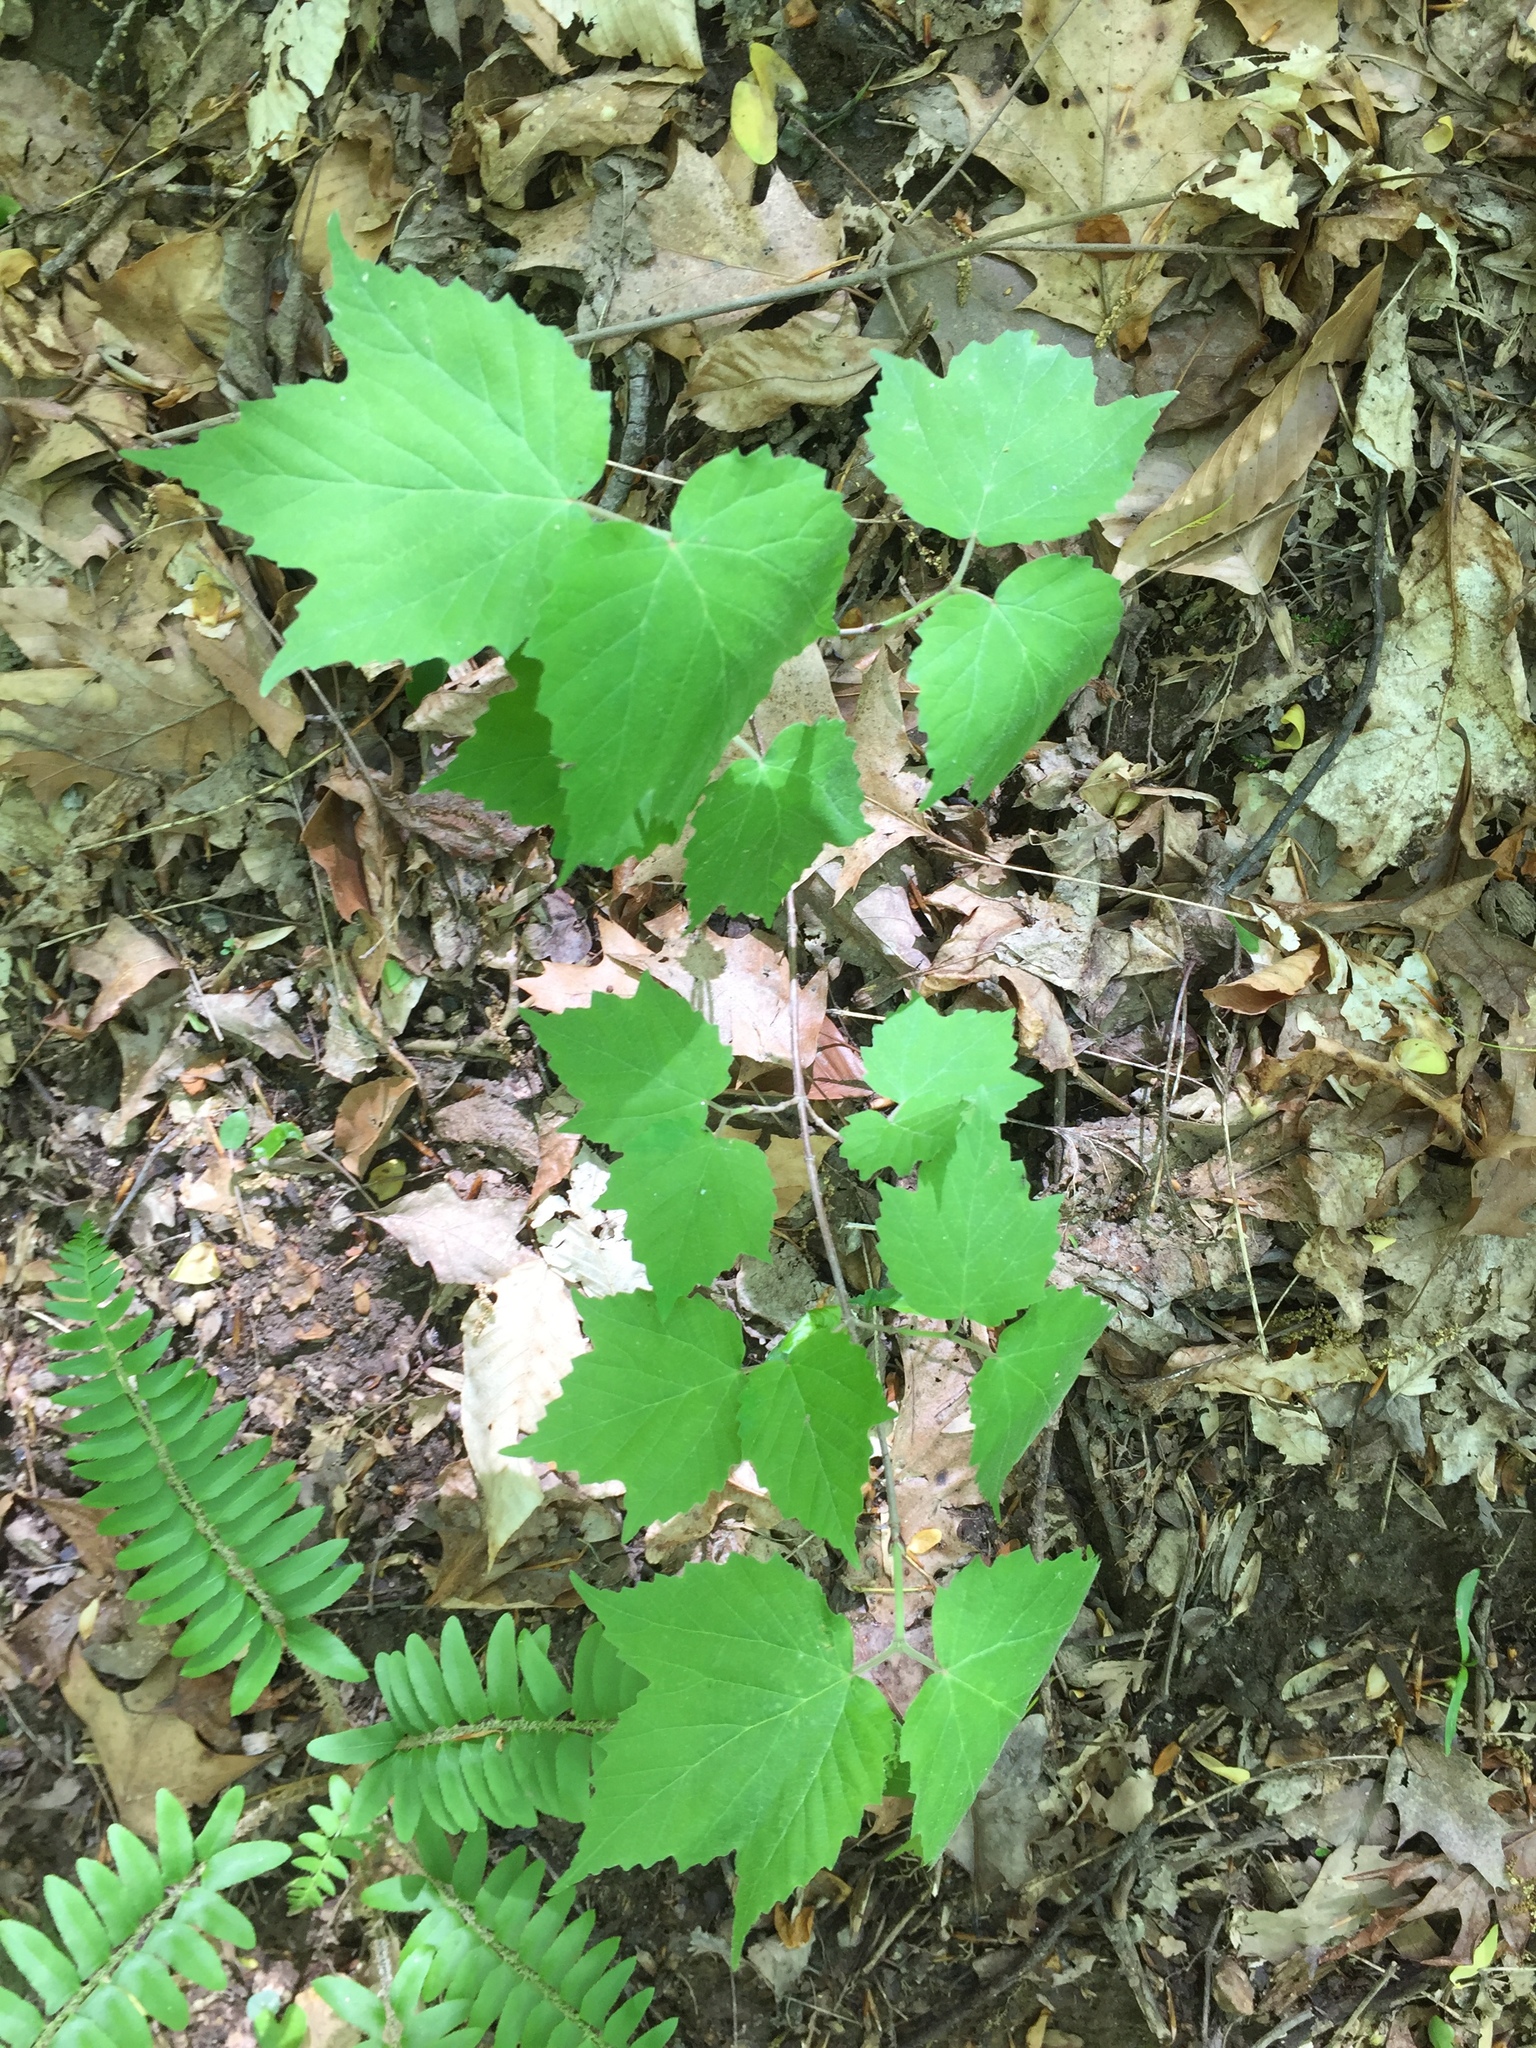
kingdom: Plantae
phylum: Tracheophyta
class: Magnoliopsida
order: Dipsacales
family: Viburnaceae
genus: Viburnum
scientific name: Viburnum acerifolium
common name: Dockmackie
